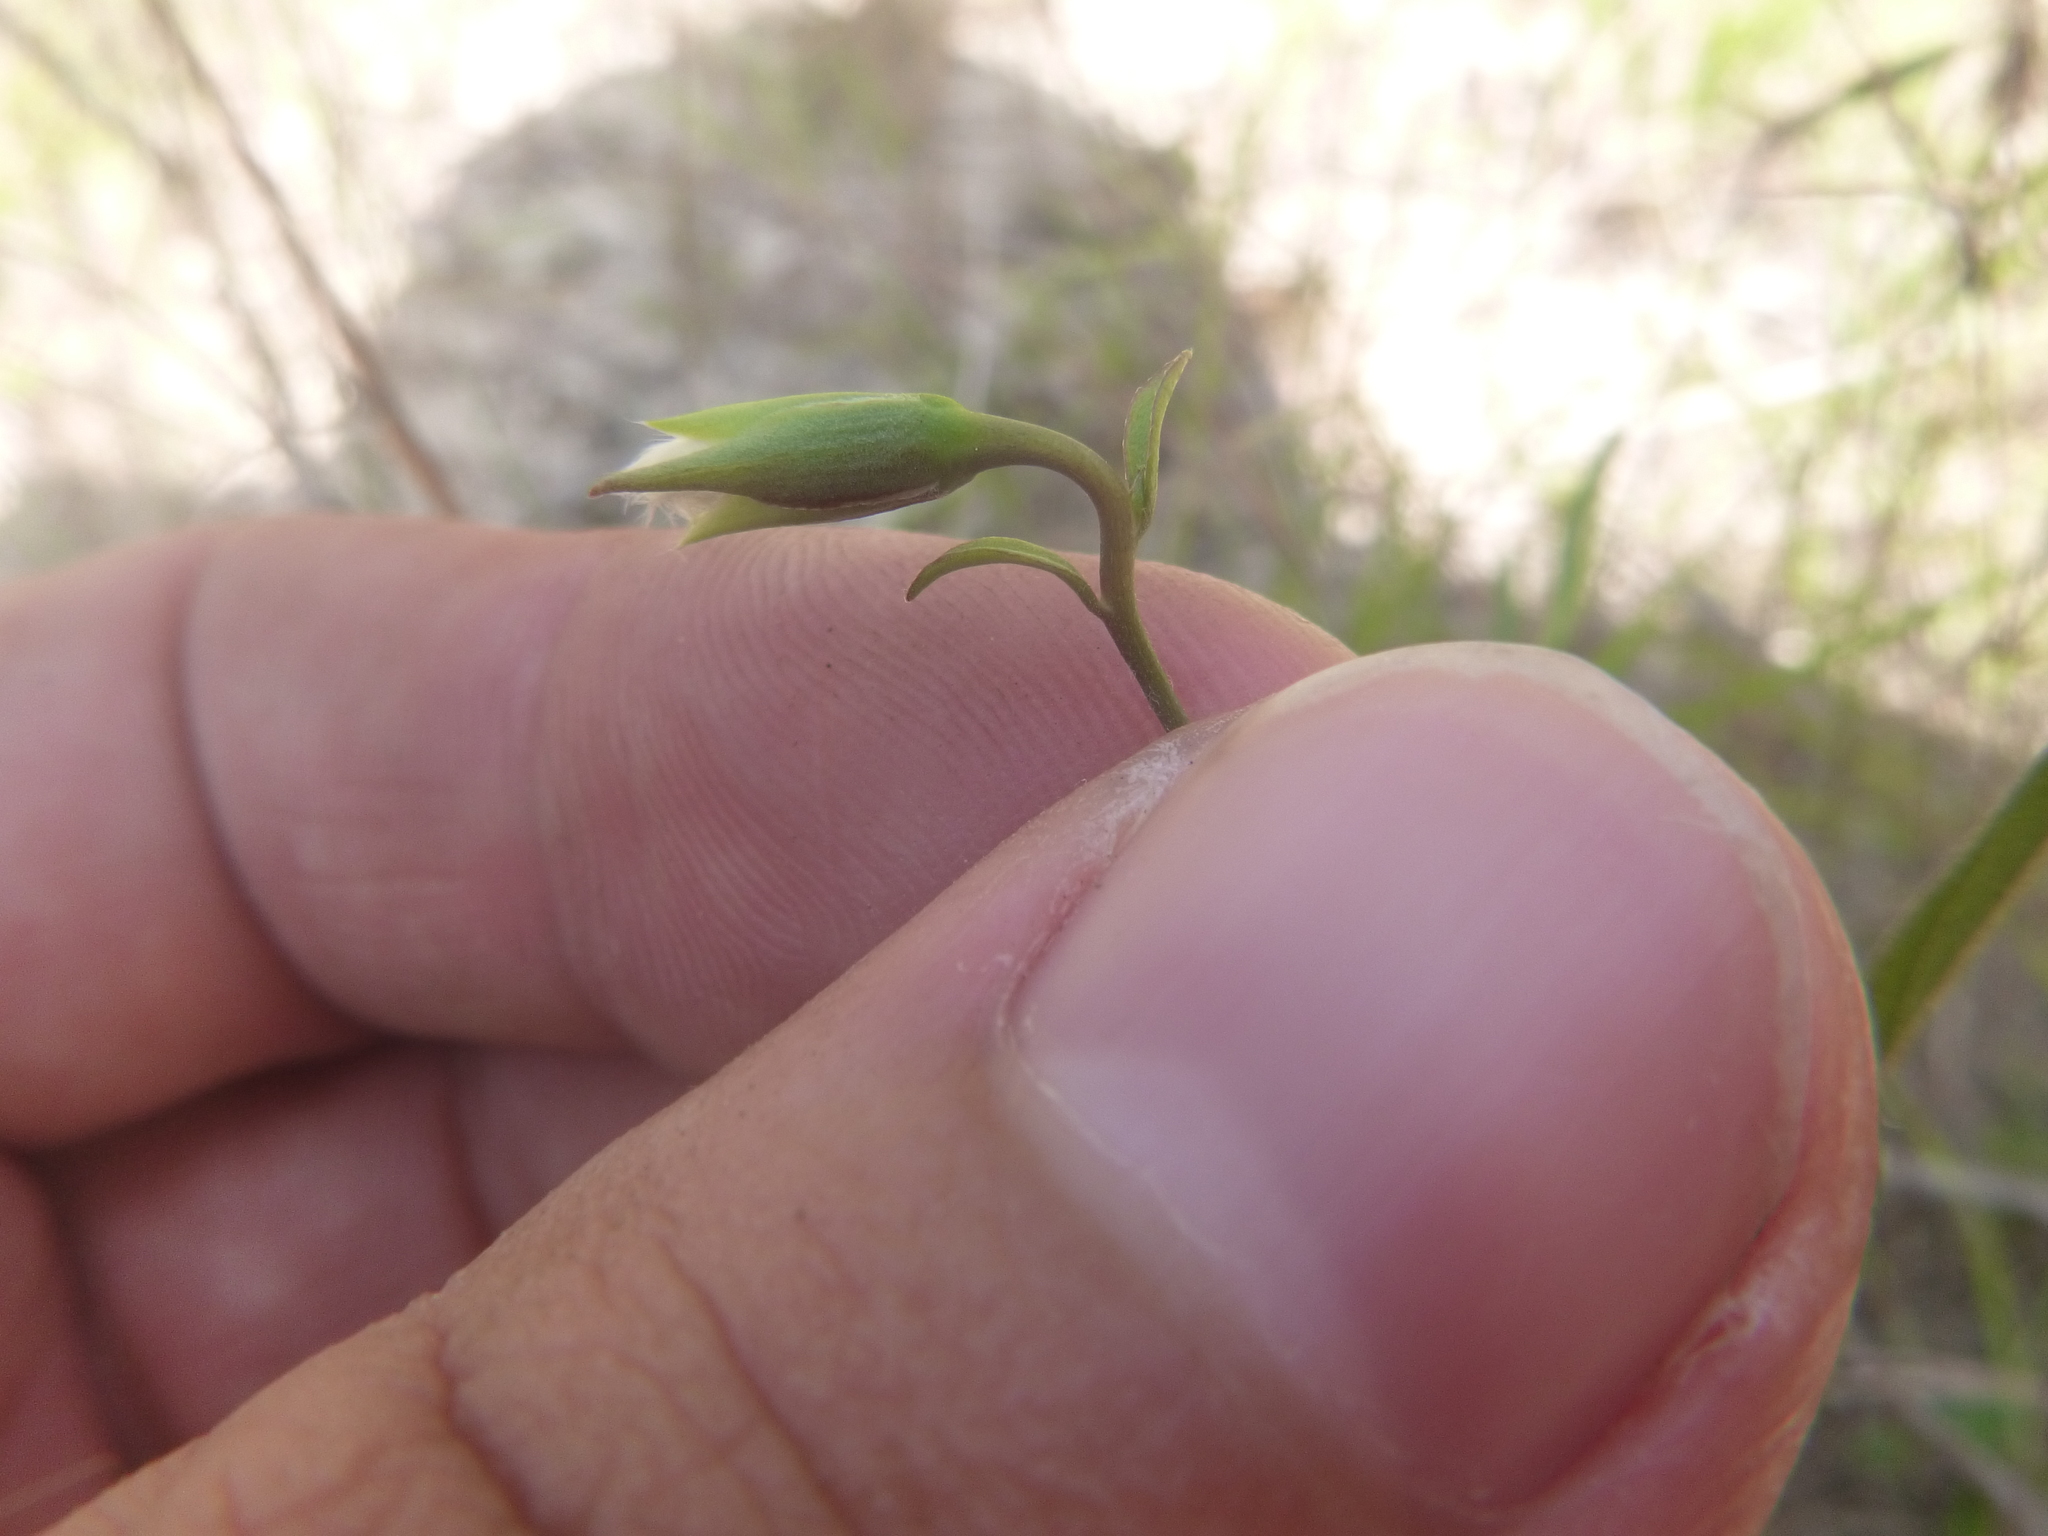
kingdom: Plantae
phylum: Tracheophyta
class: Magnoliopsida
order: Solanales
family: Convolvulaceae
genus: Stylisma
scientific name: Stylisma patens
